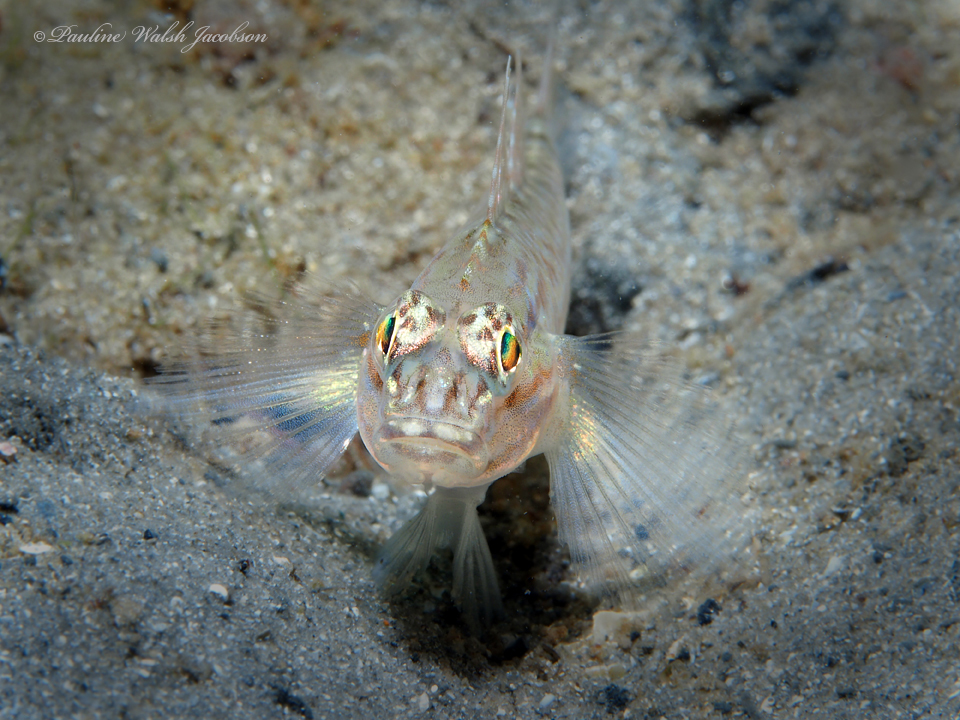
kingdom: Animalia
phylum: Chordata
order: Perciformes
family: Gobiidae
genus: Coryphopterus
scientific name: Coryphopterus glaucofraenum
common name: Bridled goby
